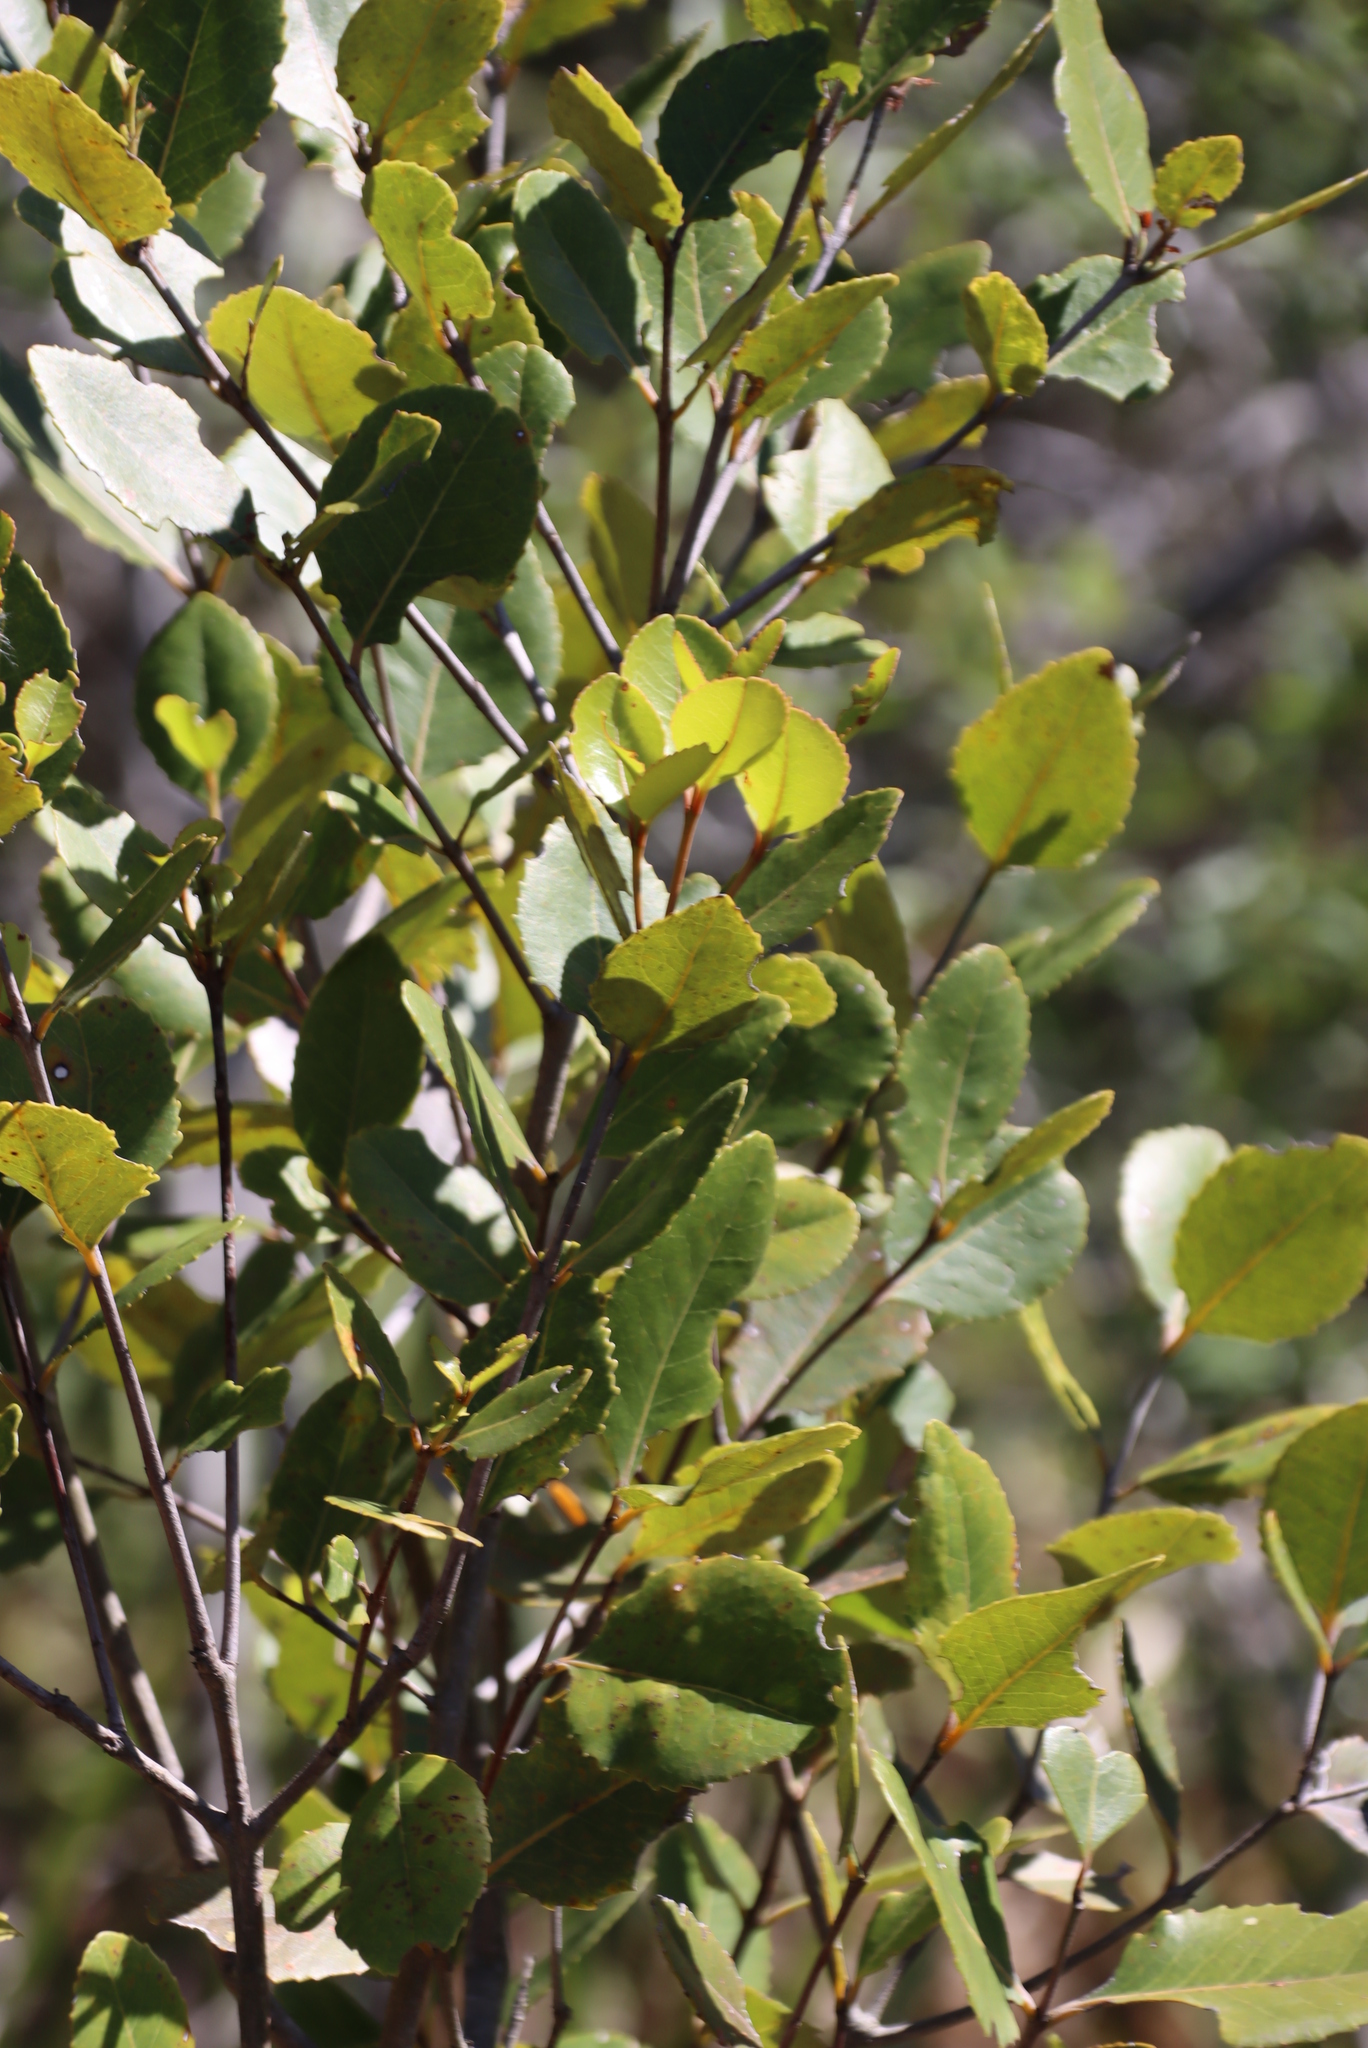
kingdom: Plantae
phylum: Tracheophyta
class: Magnoliopsida
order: Celastrales
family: Celastraceae
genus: Cassine
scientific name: Cassine peragua
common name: Cape saffron
